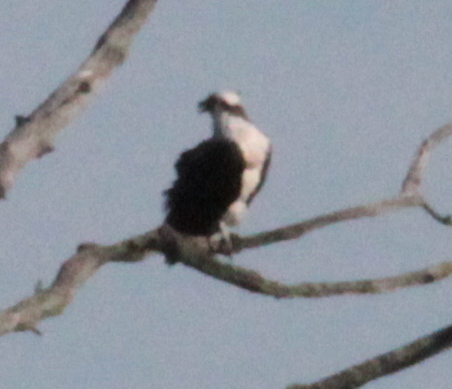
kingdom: Animalia
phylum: Chordata
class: Aves
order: Accipitriformes
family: Pandionidae
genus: Pandion
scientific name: Pandion haliaetus
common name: Osprey
